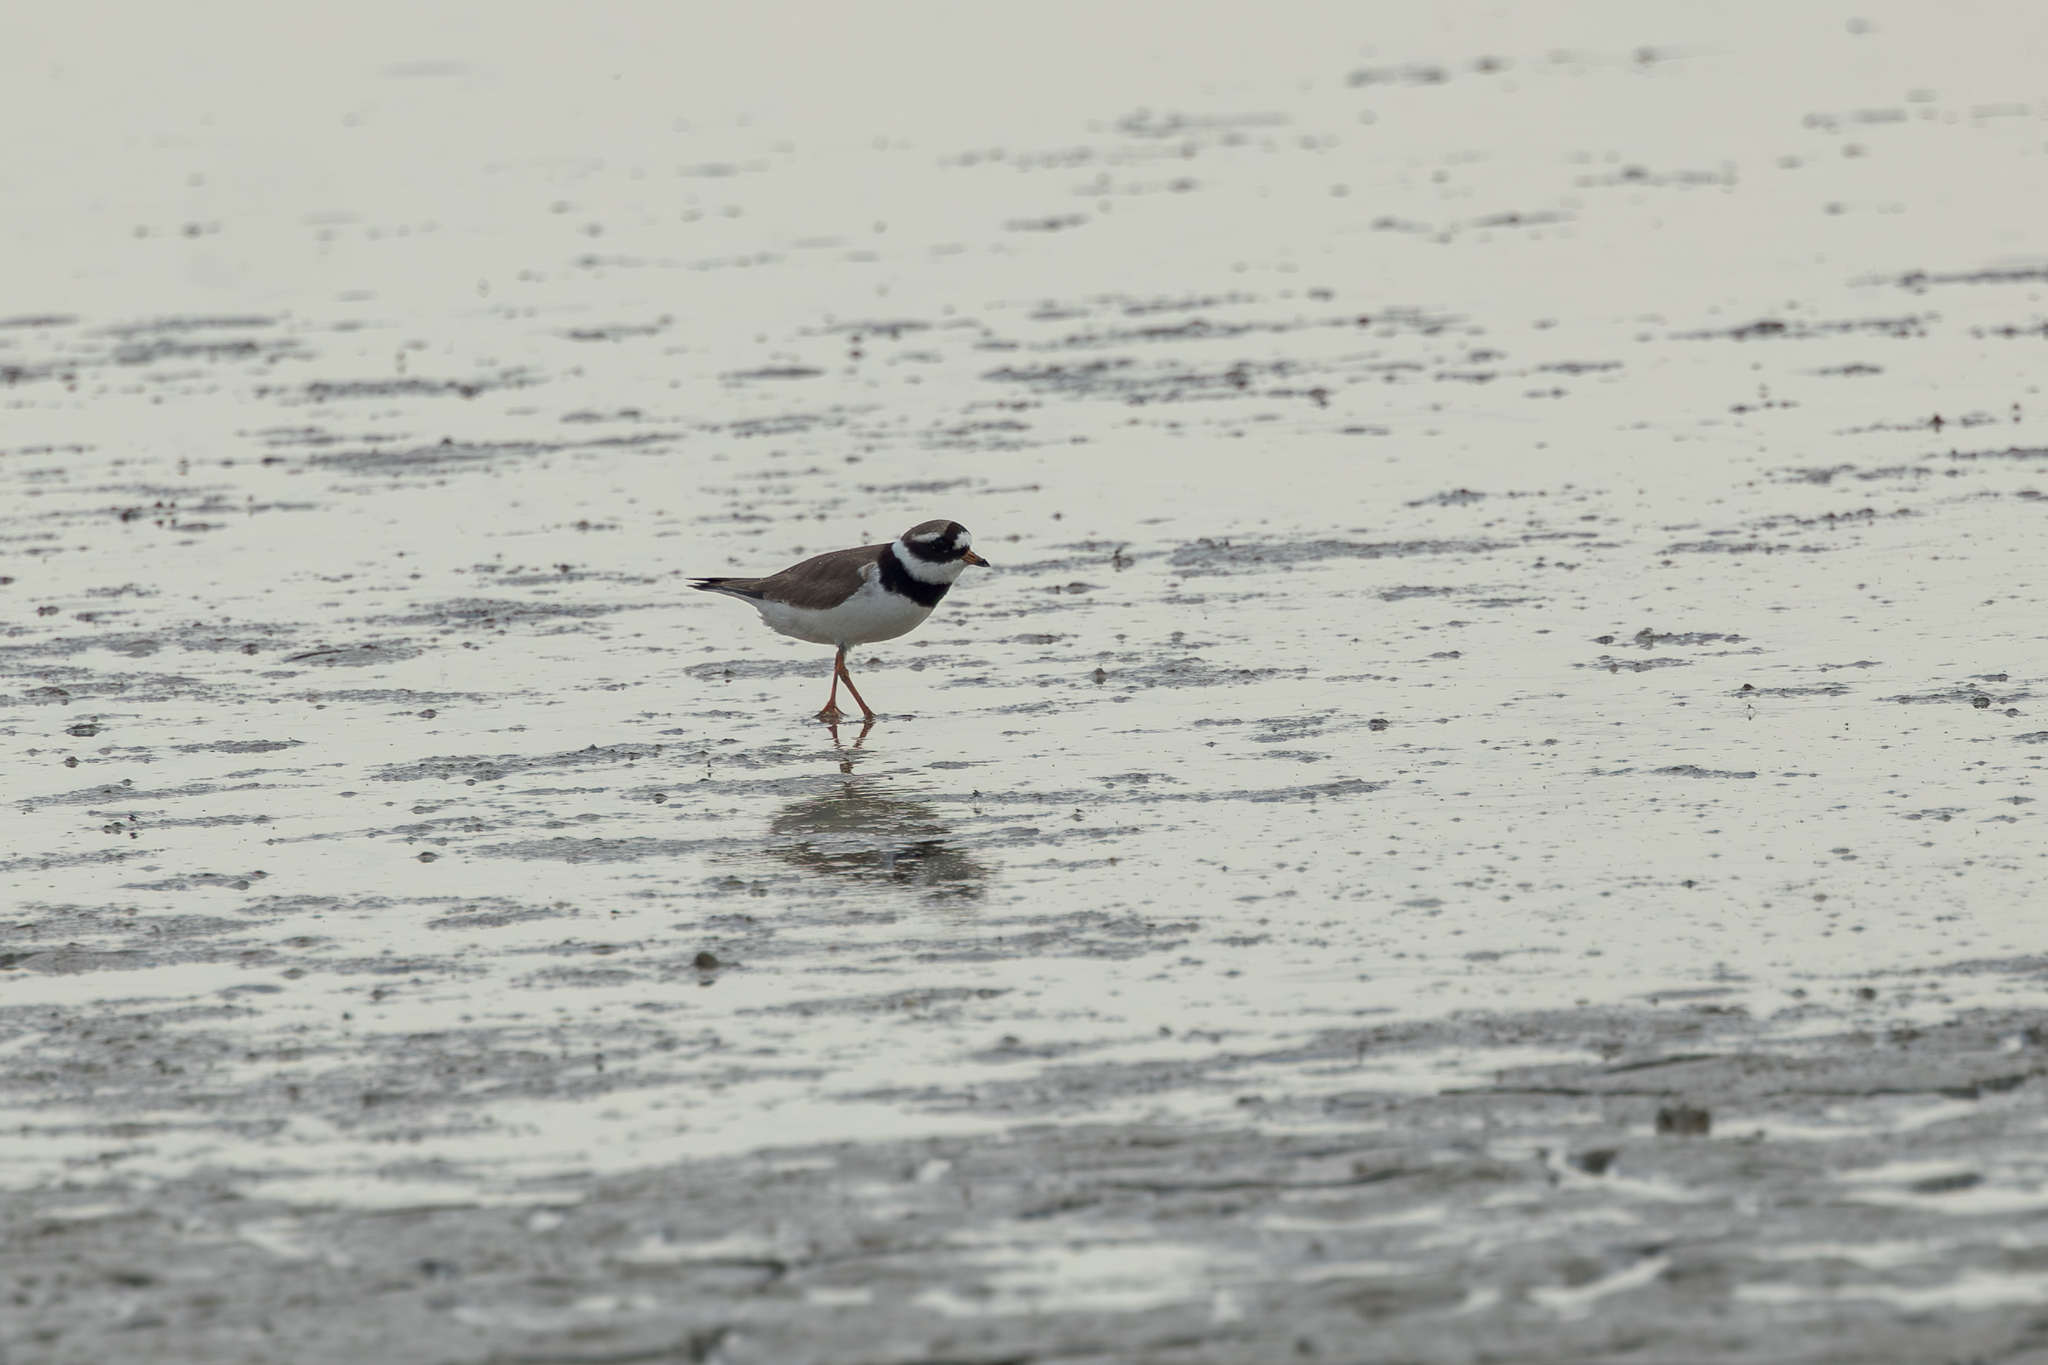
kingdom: Animalia
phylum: Chordata
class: Aves
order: Charadriiformes
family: Charadriidae
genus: Charadrius
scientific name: Charadrius hiaticula
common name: Common ringed plover
